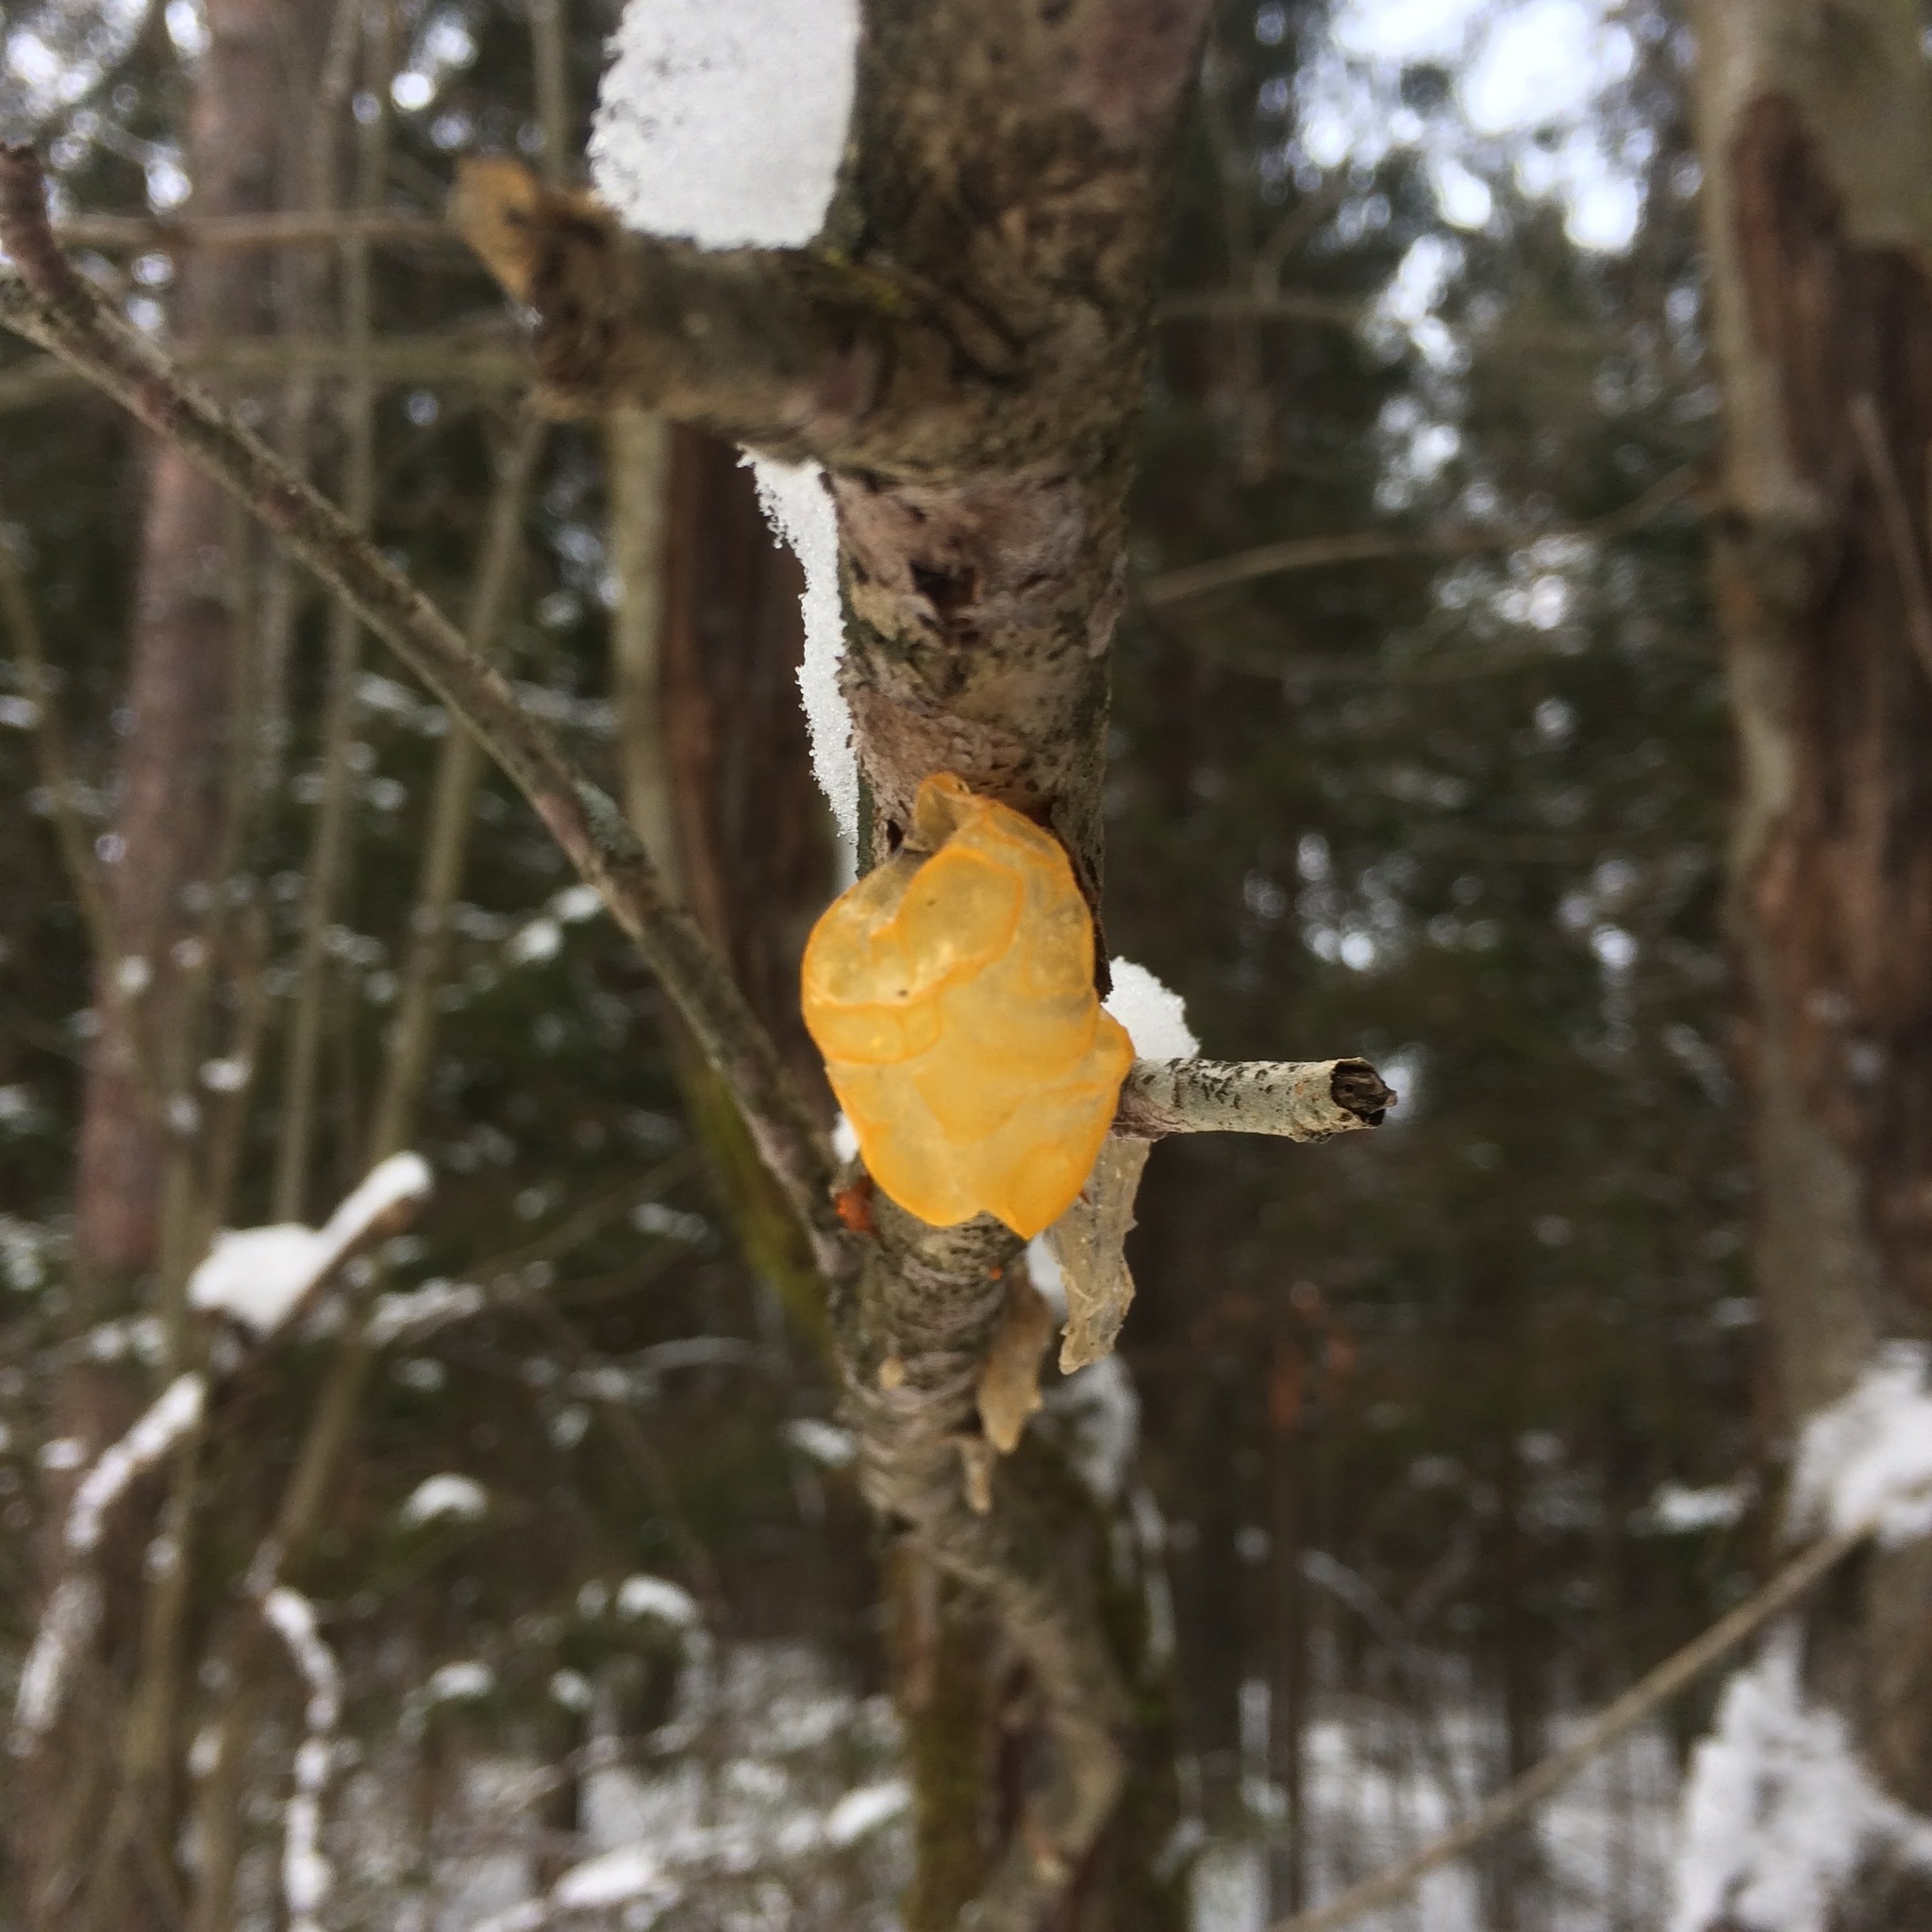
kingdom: Fungi
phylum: Basidiomycota
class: Tremellomycetes
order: Tremellales
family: Tremellaceae
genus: Tremella
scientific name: Tremella mesenterica
